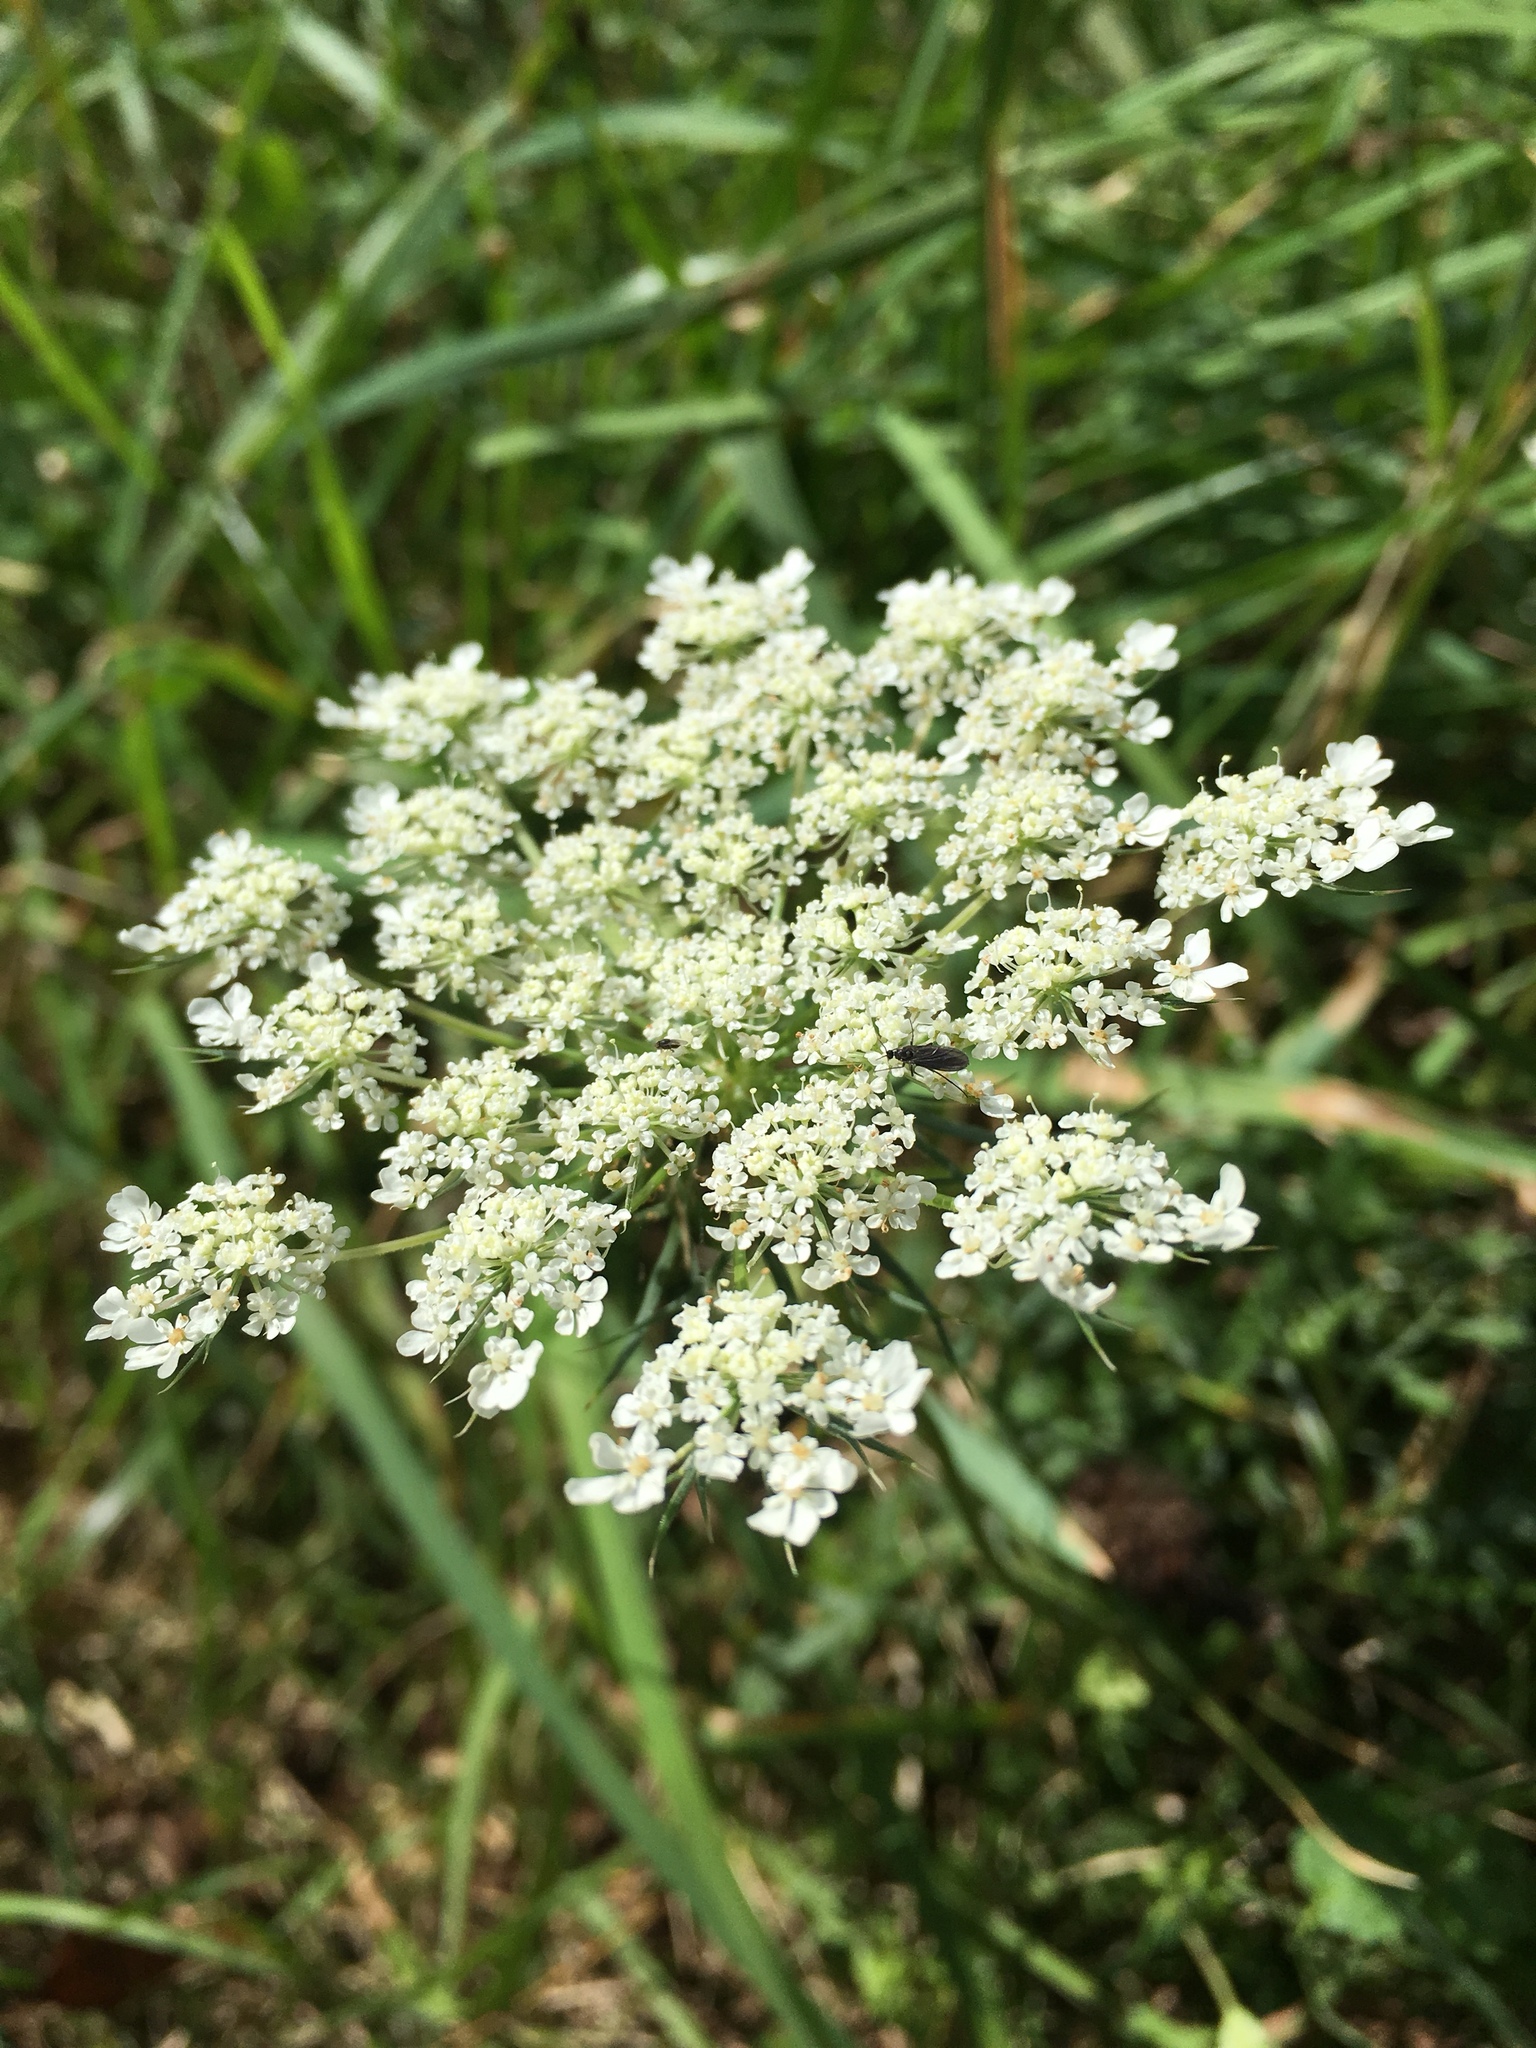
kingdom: Plantae
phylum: Tracheophyta
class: Magnoliopsida
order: Apiales
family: Apiaceae
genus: Daucus
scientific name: Daucus carota
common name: Wild carrot
